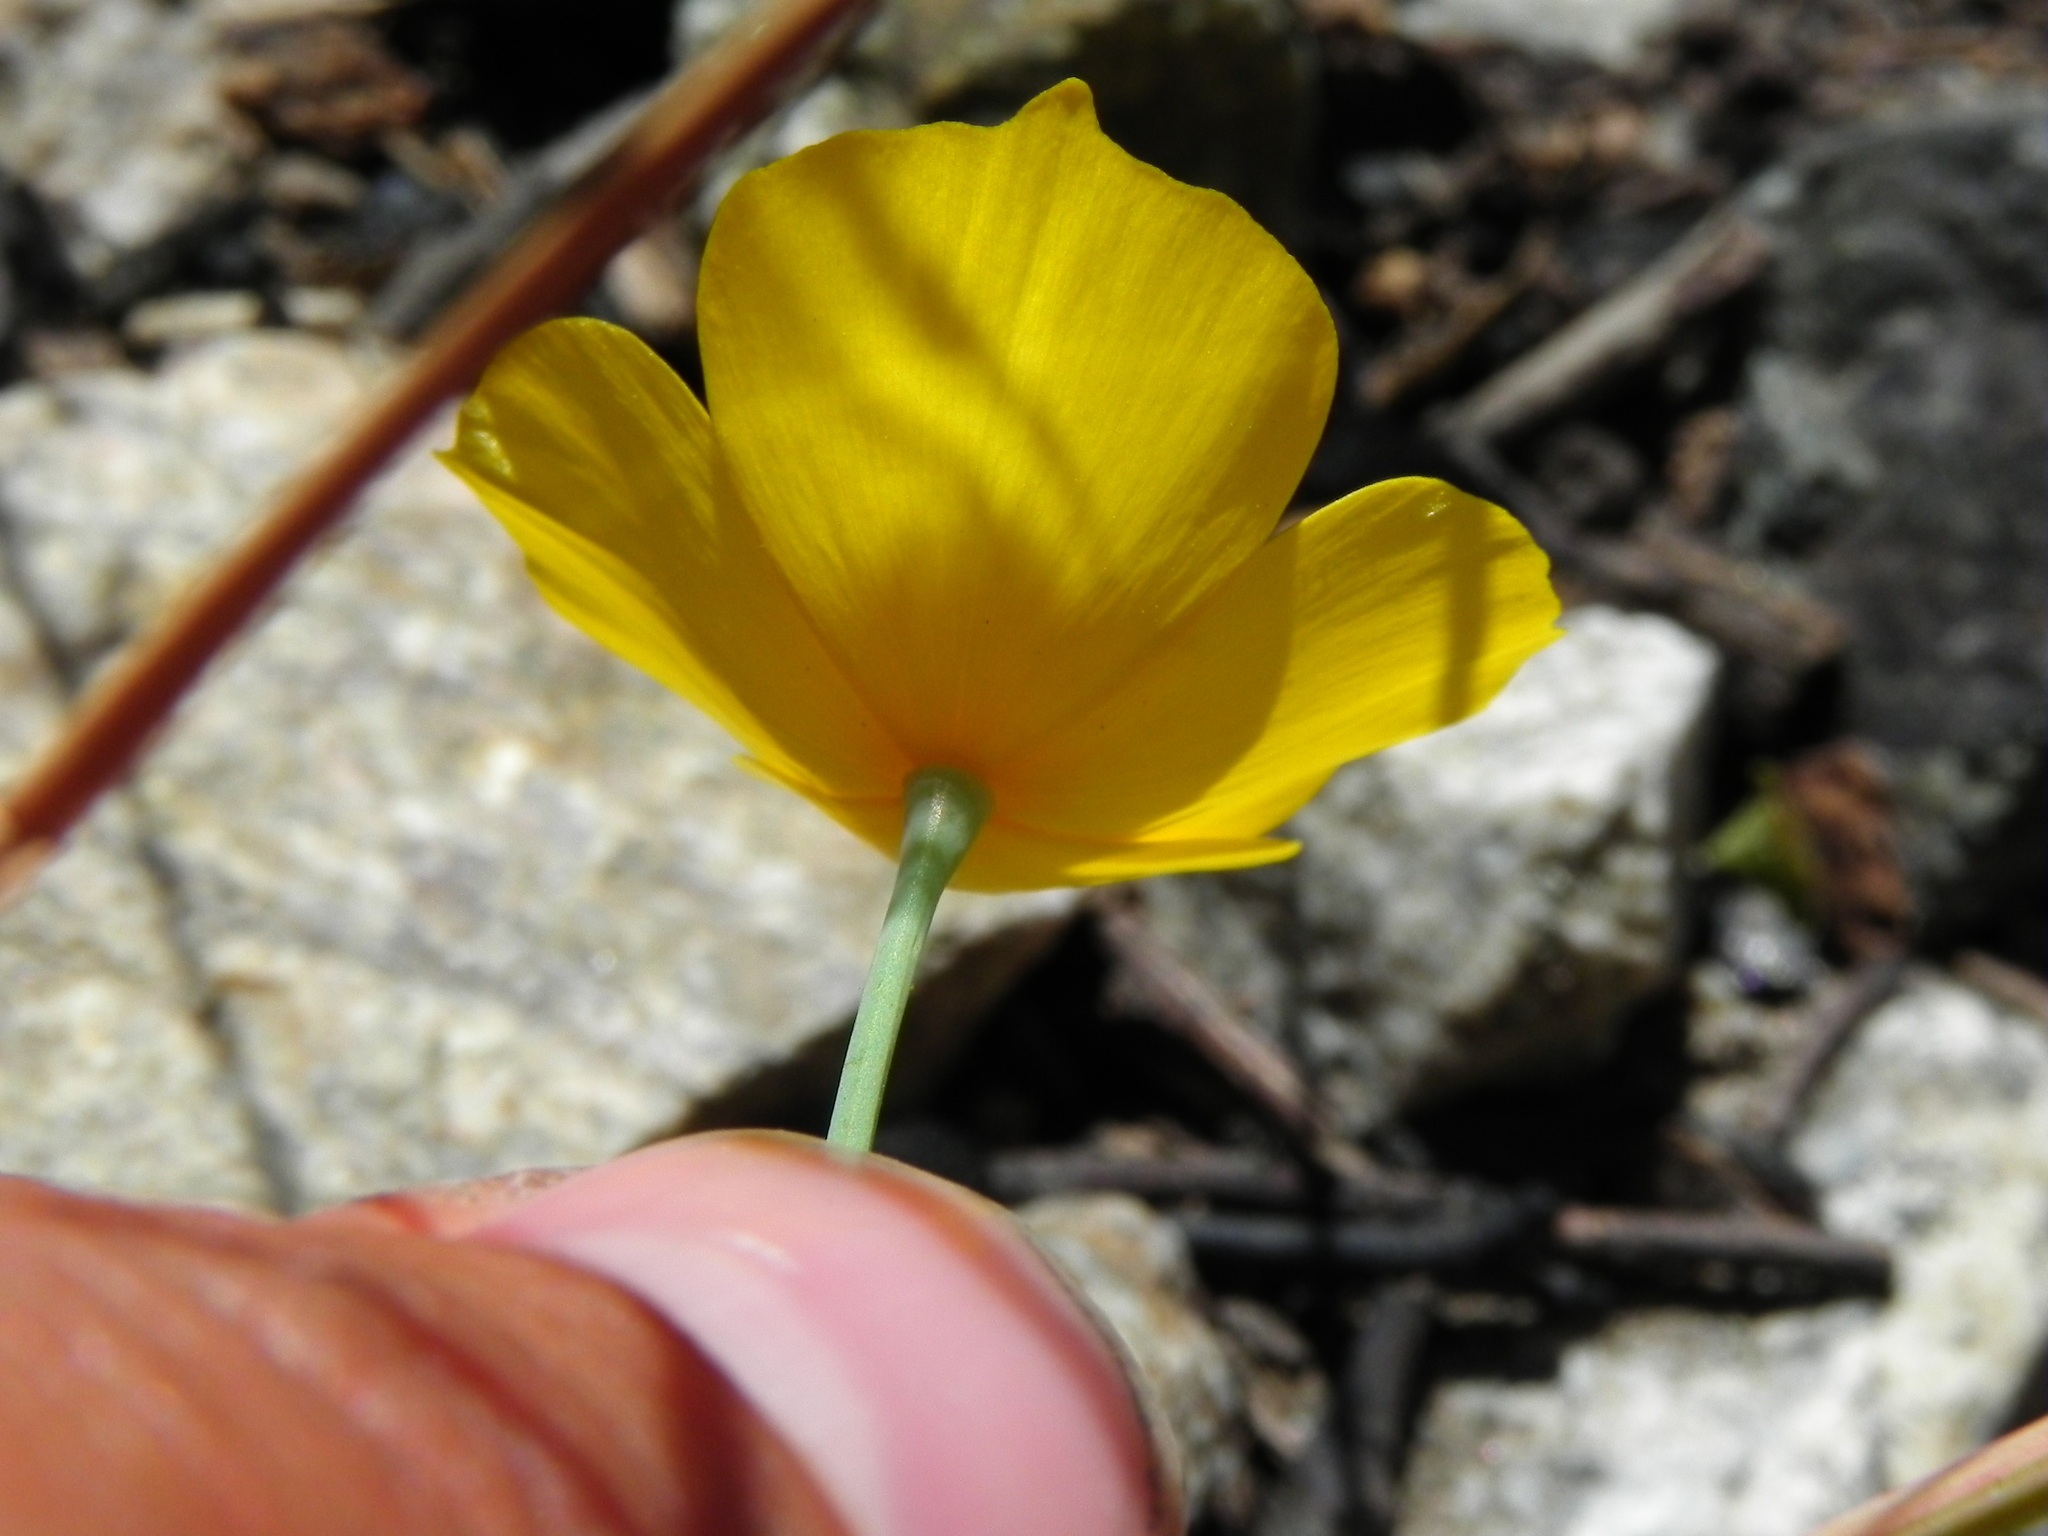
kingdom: Plantae
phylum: Tracheophyta
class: Magnoliopsida
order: Ranunculales
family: Papaveraceae
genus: Eschscholzia
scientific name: Eschscholzia caespitosa
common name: Tufted california-poppy
